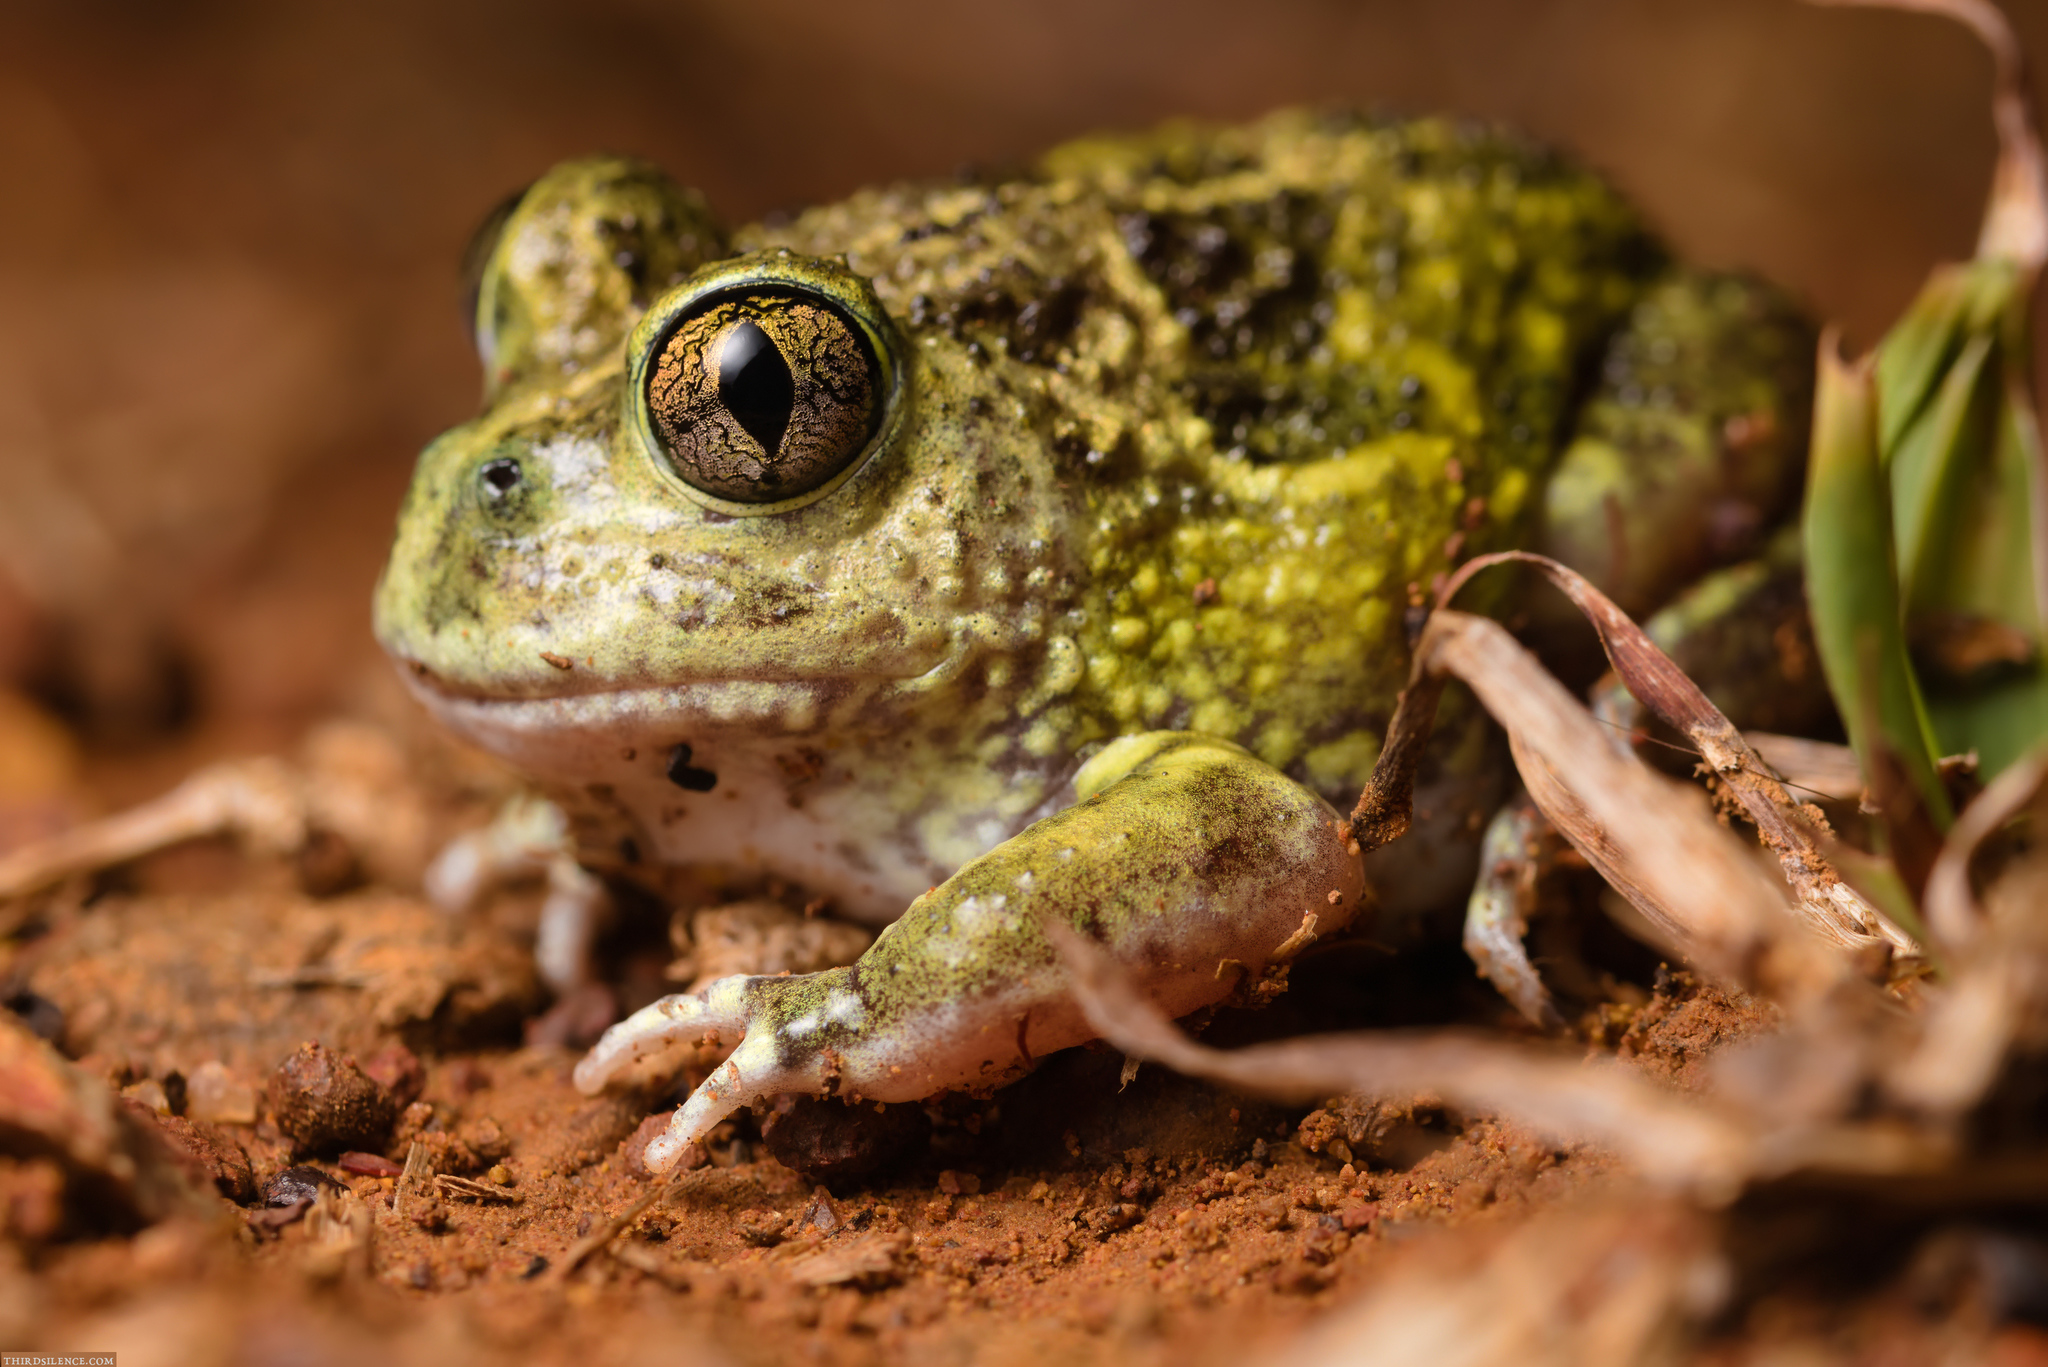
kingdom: Animalia
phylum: Chordata
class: Amphibia
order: Anura
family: Limnodynastidae
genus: Neobatrachus
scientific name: Neobatrachus sudelli
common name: Common spadefoot toad
